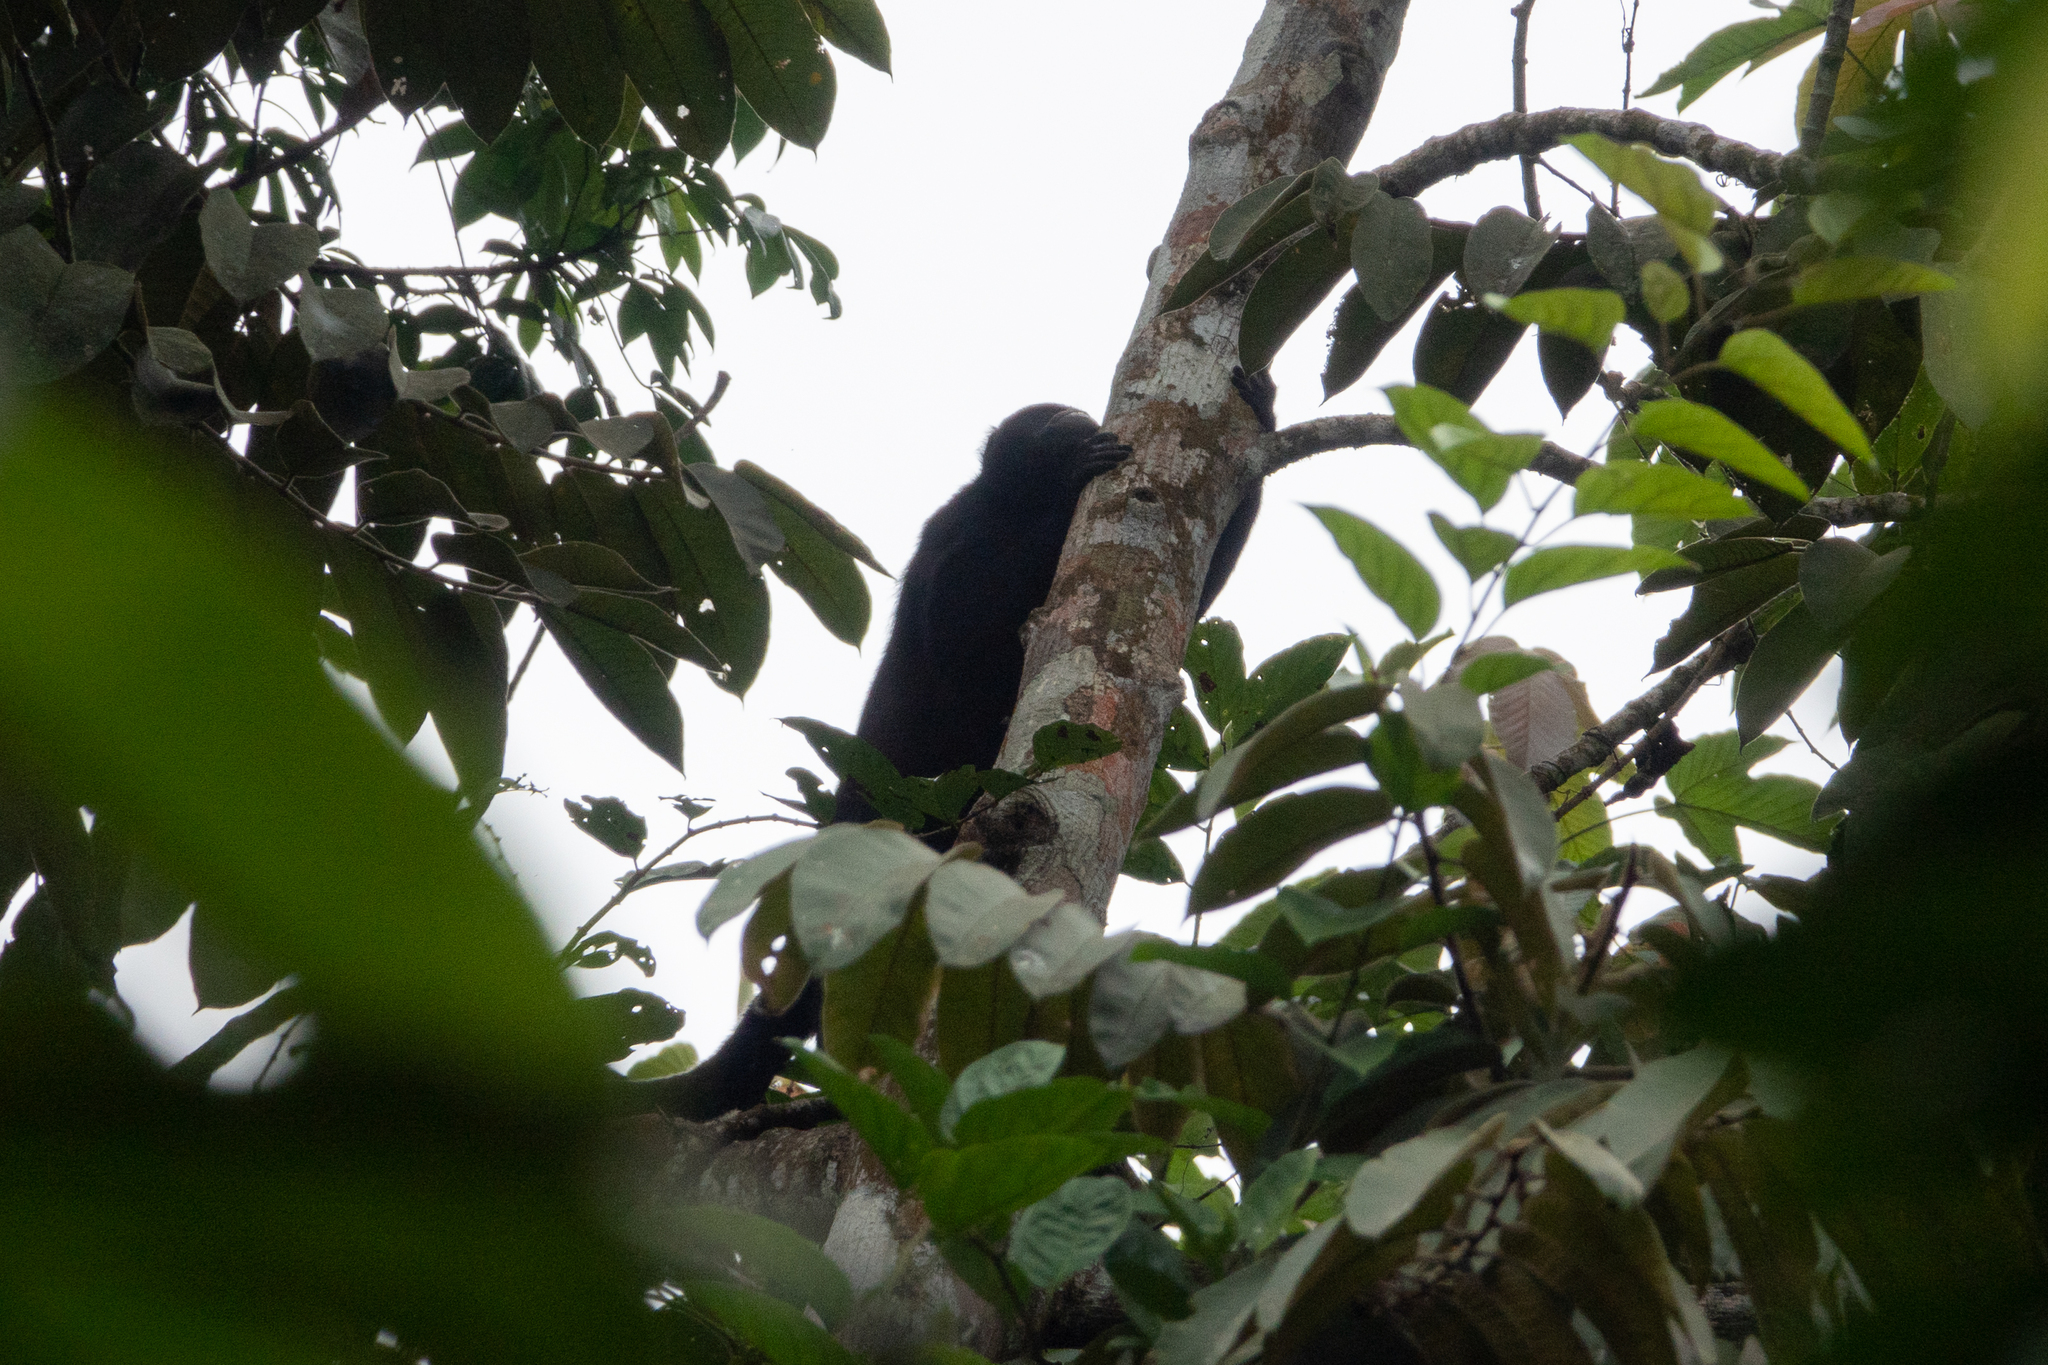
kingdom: Animalia
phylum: Chordata
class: Mammalia
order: Primates
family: Atelidae
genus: Alouatta
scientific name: Alouatta palliata
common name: Mantled howler
